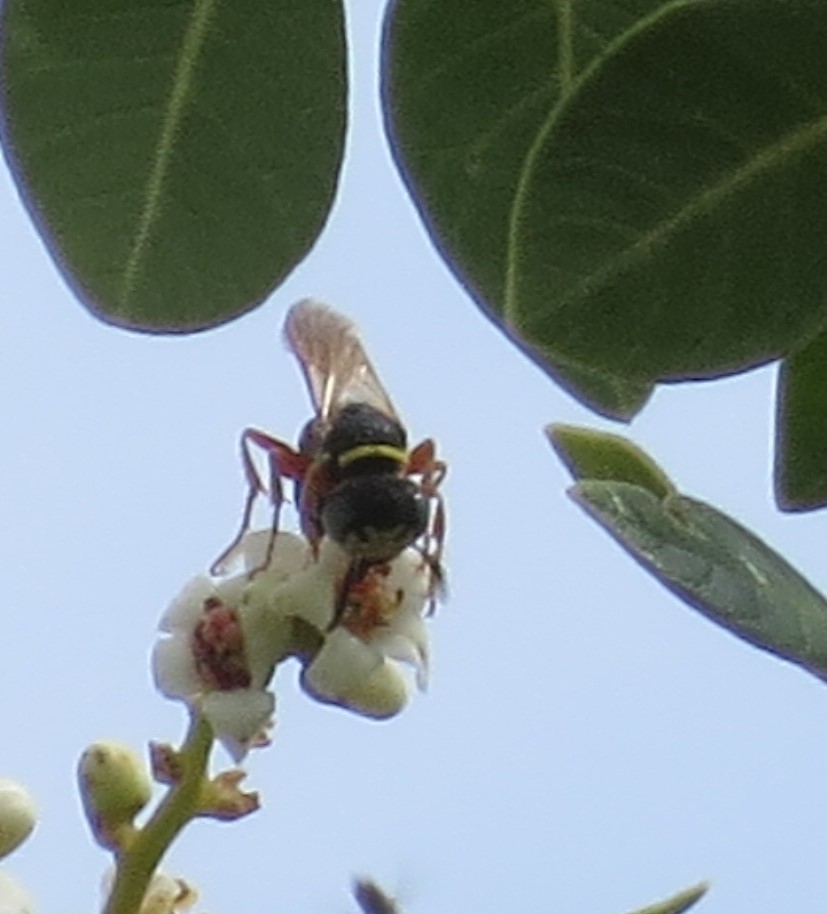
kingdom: Animalia
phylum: Arthropoda
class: Insecta
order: Hymenoptera
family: Crabronidae
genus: Philanthus
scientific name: Philanthus ventilabris
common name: Bee-killer wasp
